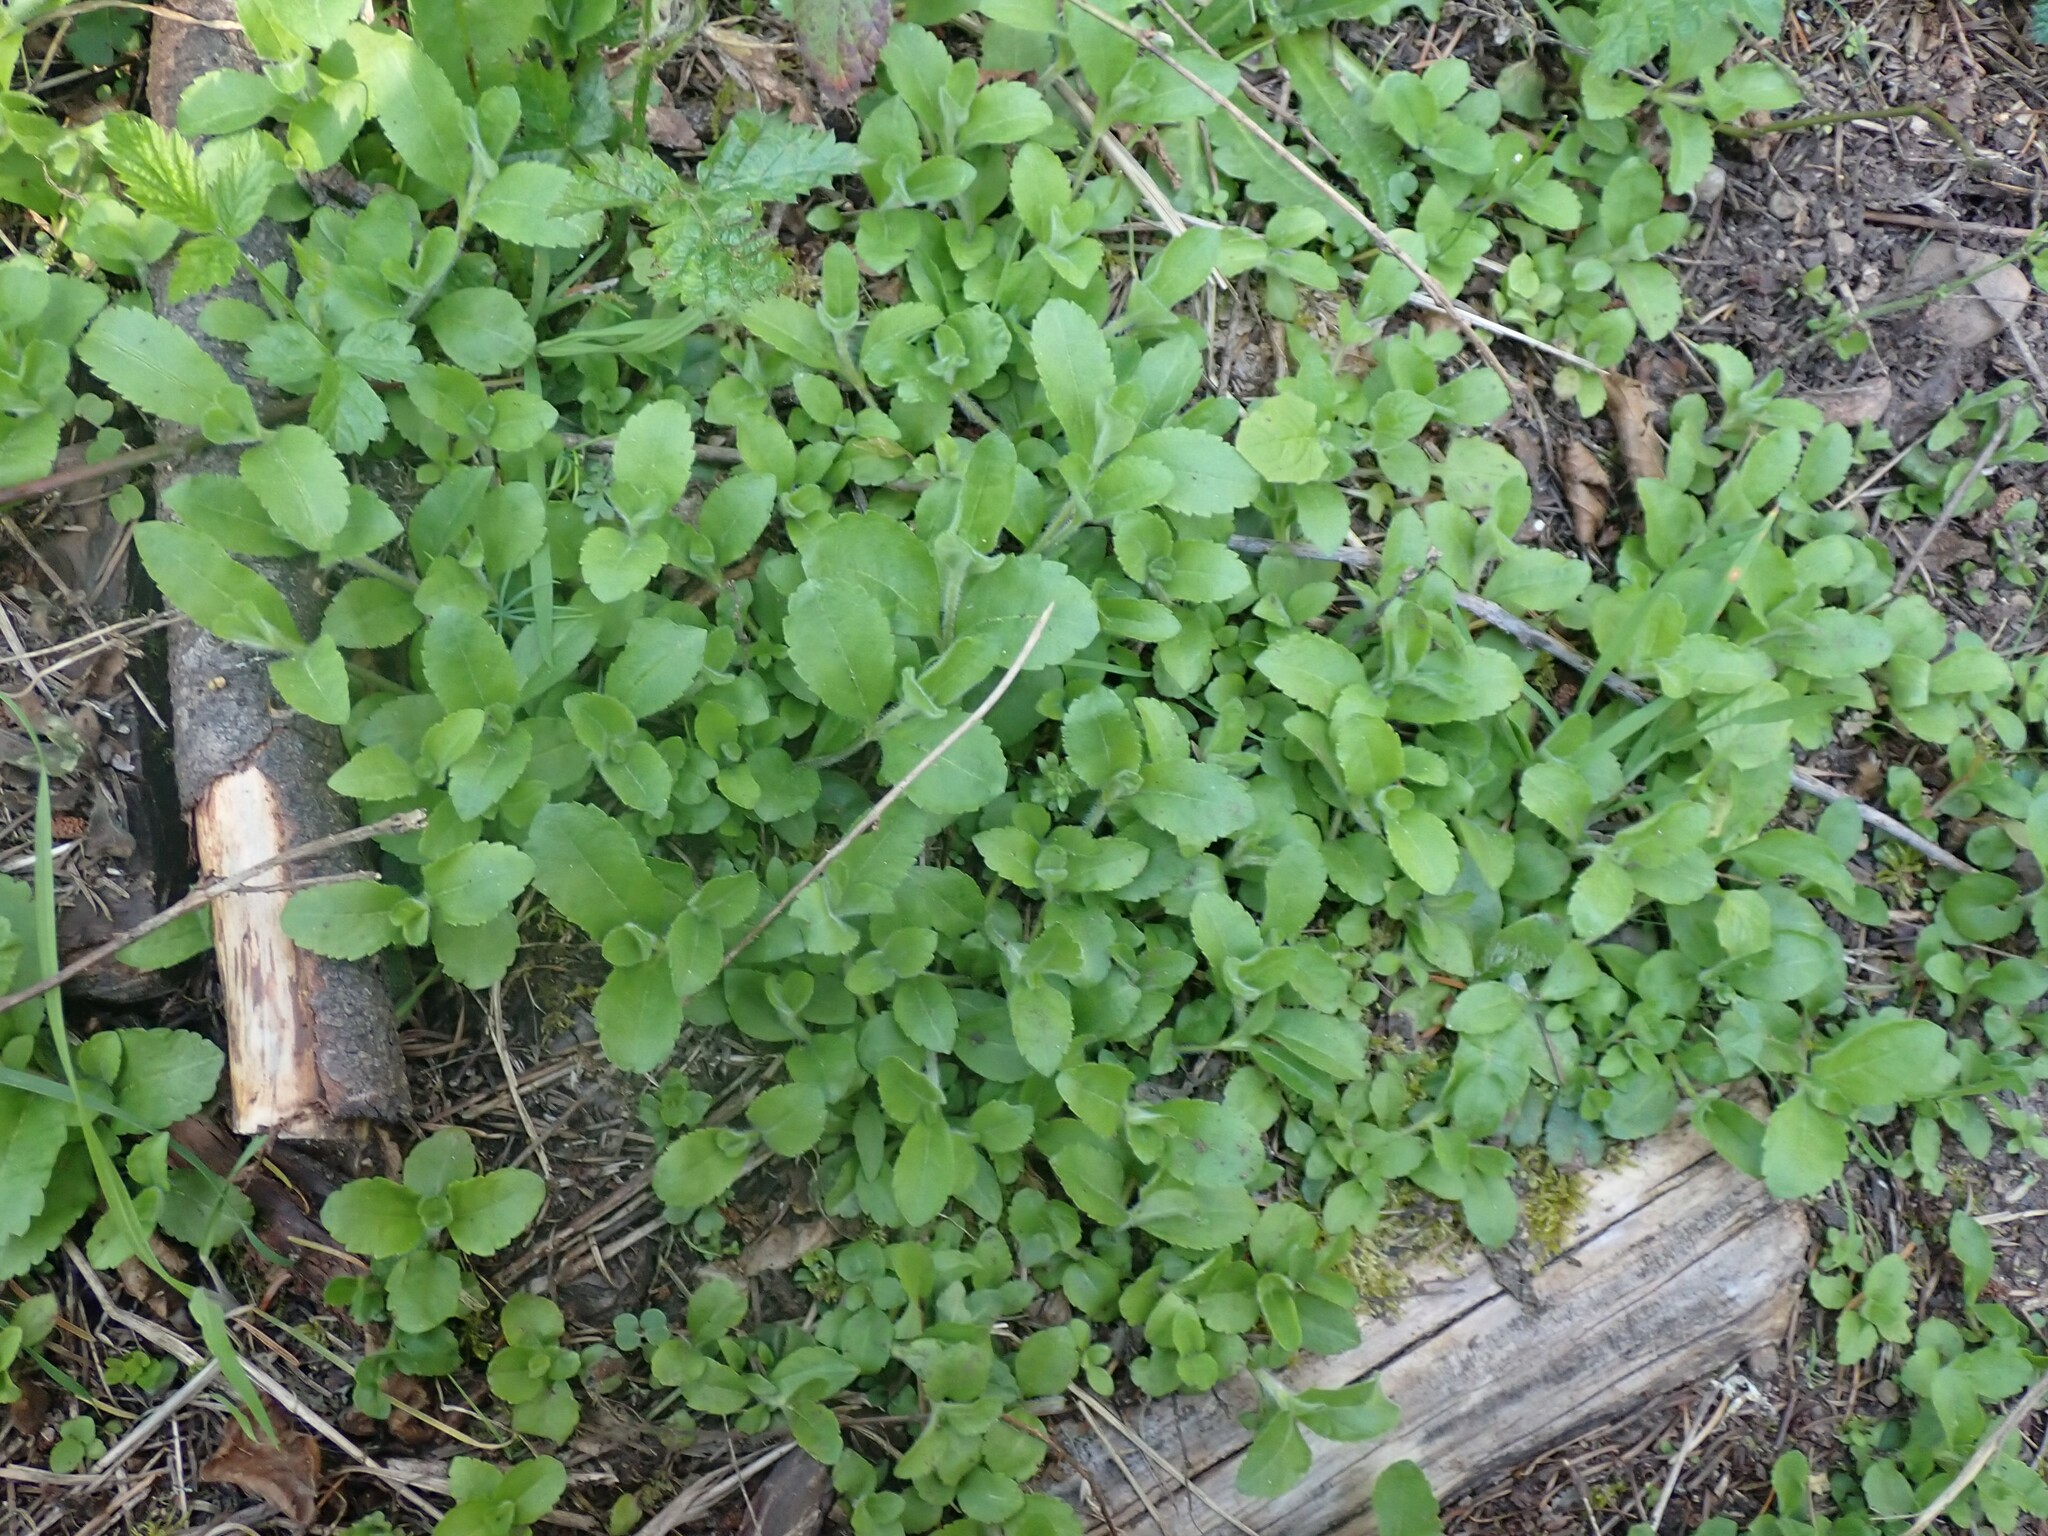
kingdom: Plantae
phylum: Tracheophyta
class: Magnoliopsida
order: Lamiales
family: Plantaginaceae
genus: Veronica
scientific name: Veronica officinalis
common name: Common speedwell
